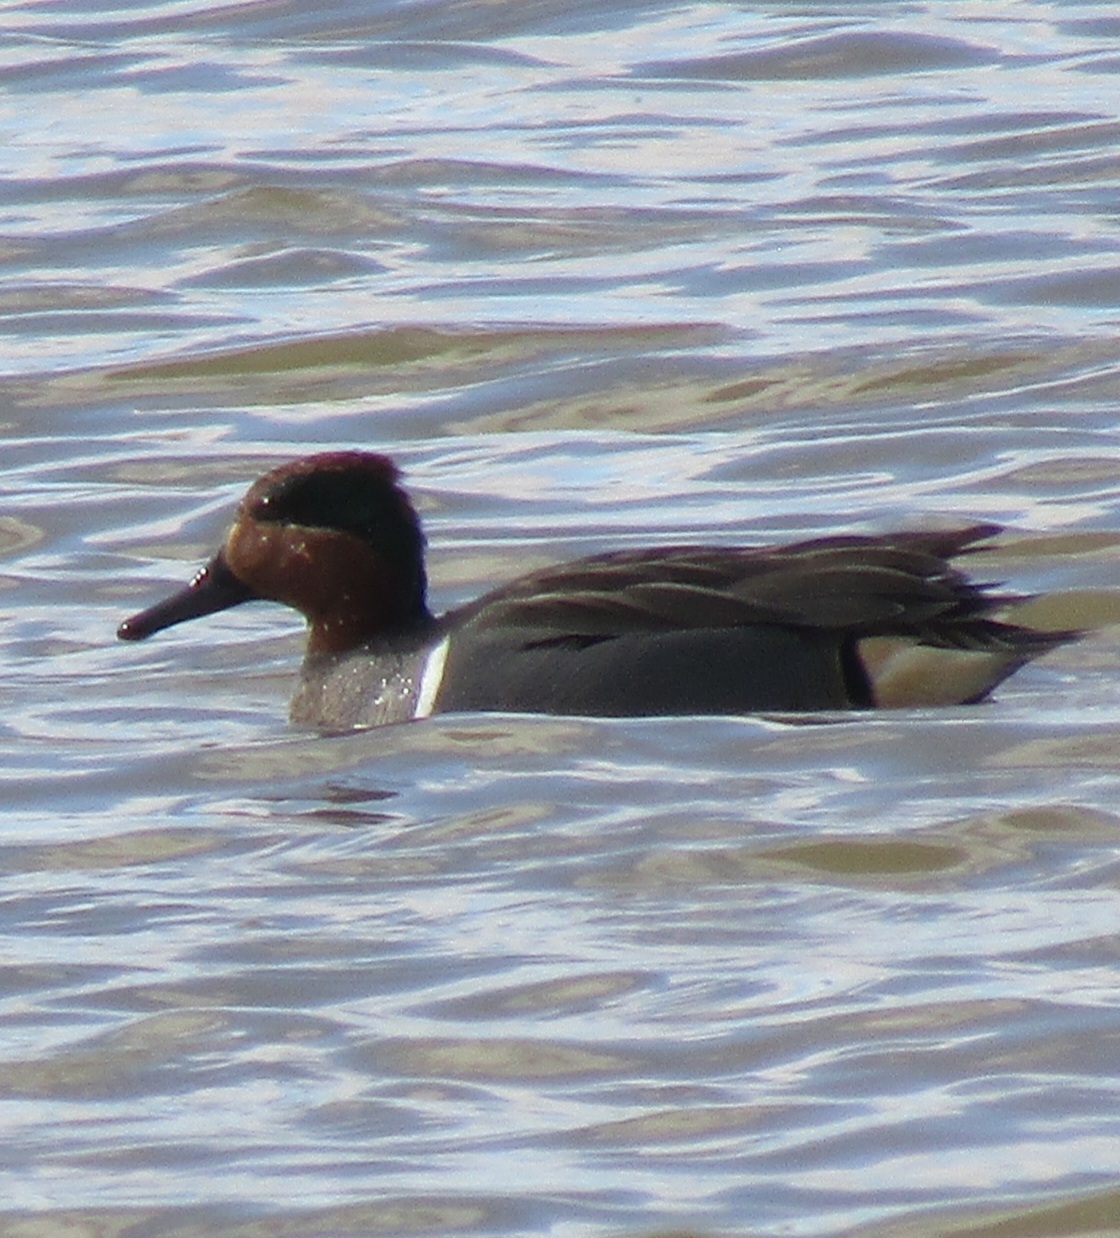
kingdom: Animalia
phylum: Chordata
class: Aves
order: Anseriformes
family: Anatidae
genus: Anas
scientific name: Anas crecca
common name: Eurasian teal
